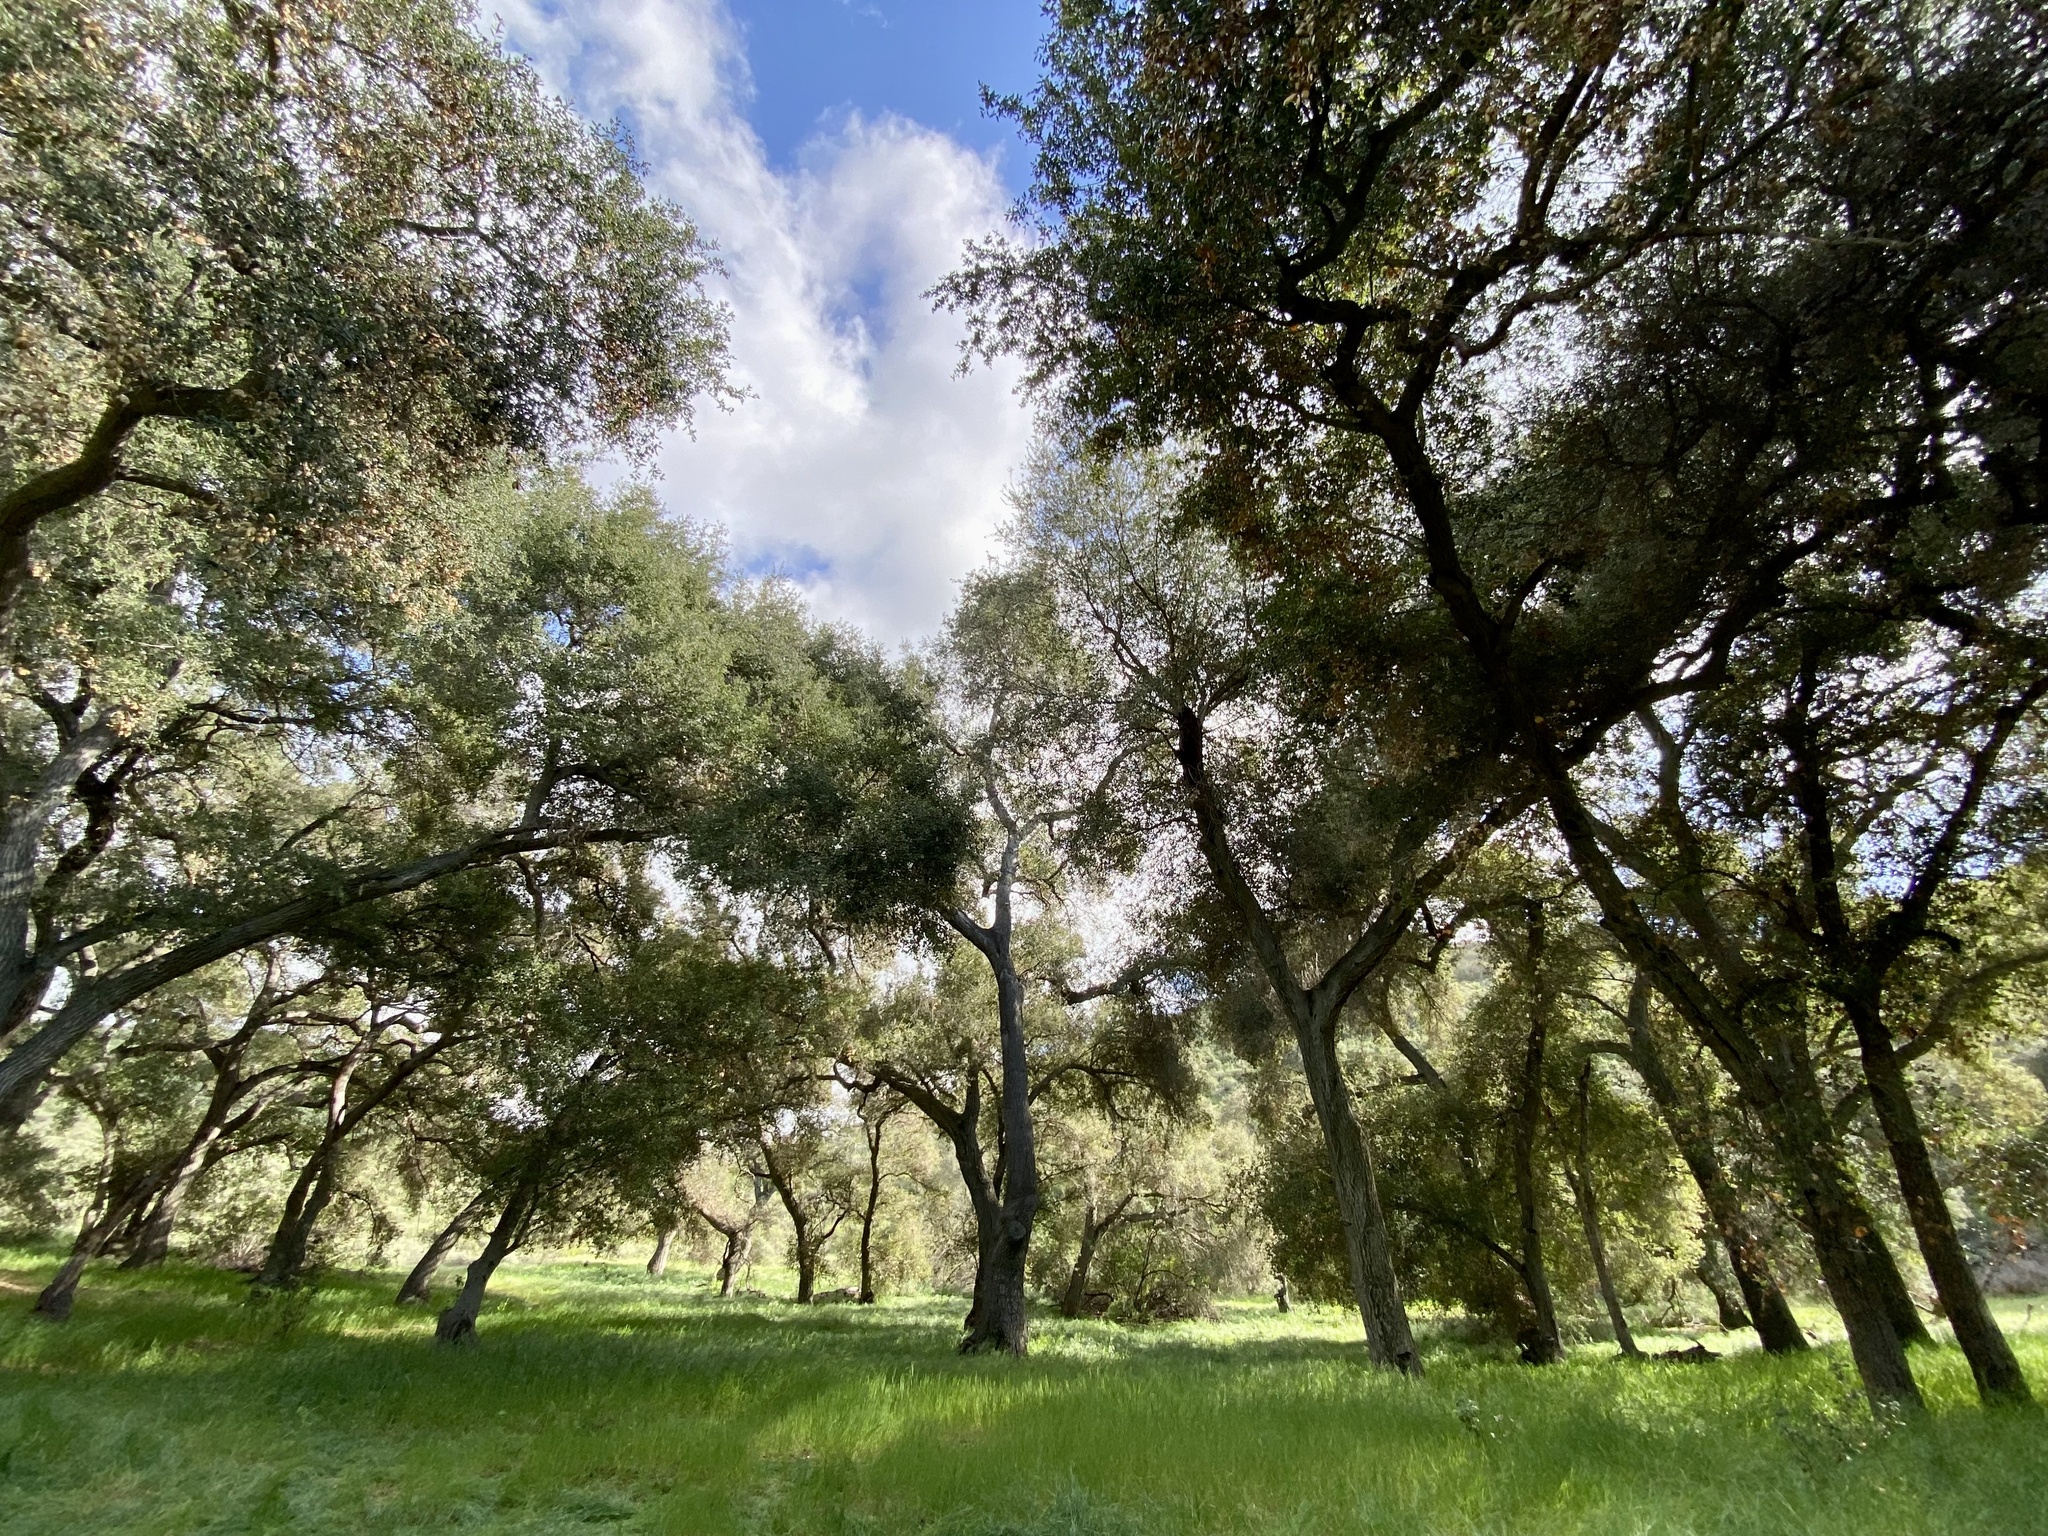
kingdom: Plantae
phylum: Tracheophyta
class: Magnoliopsida
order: Fagales
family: Fagaceae
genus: Quercus
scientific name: Quercus agrifolia
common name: California live oak
